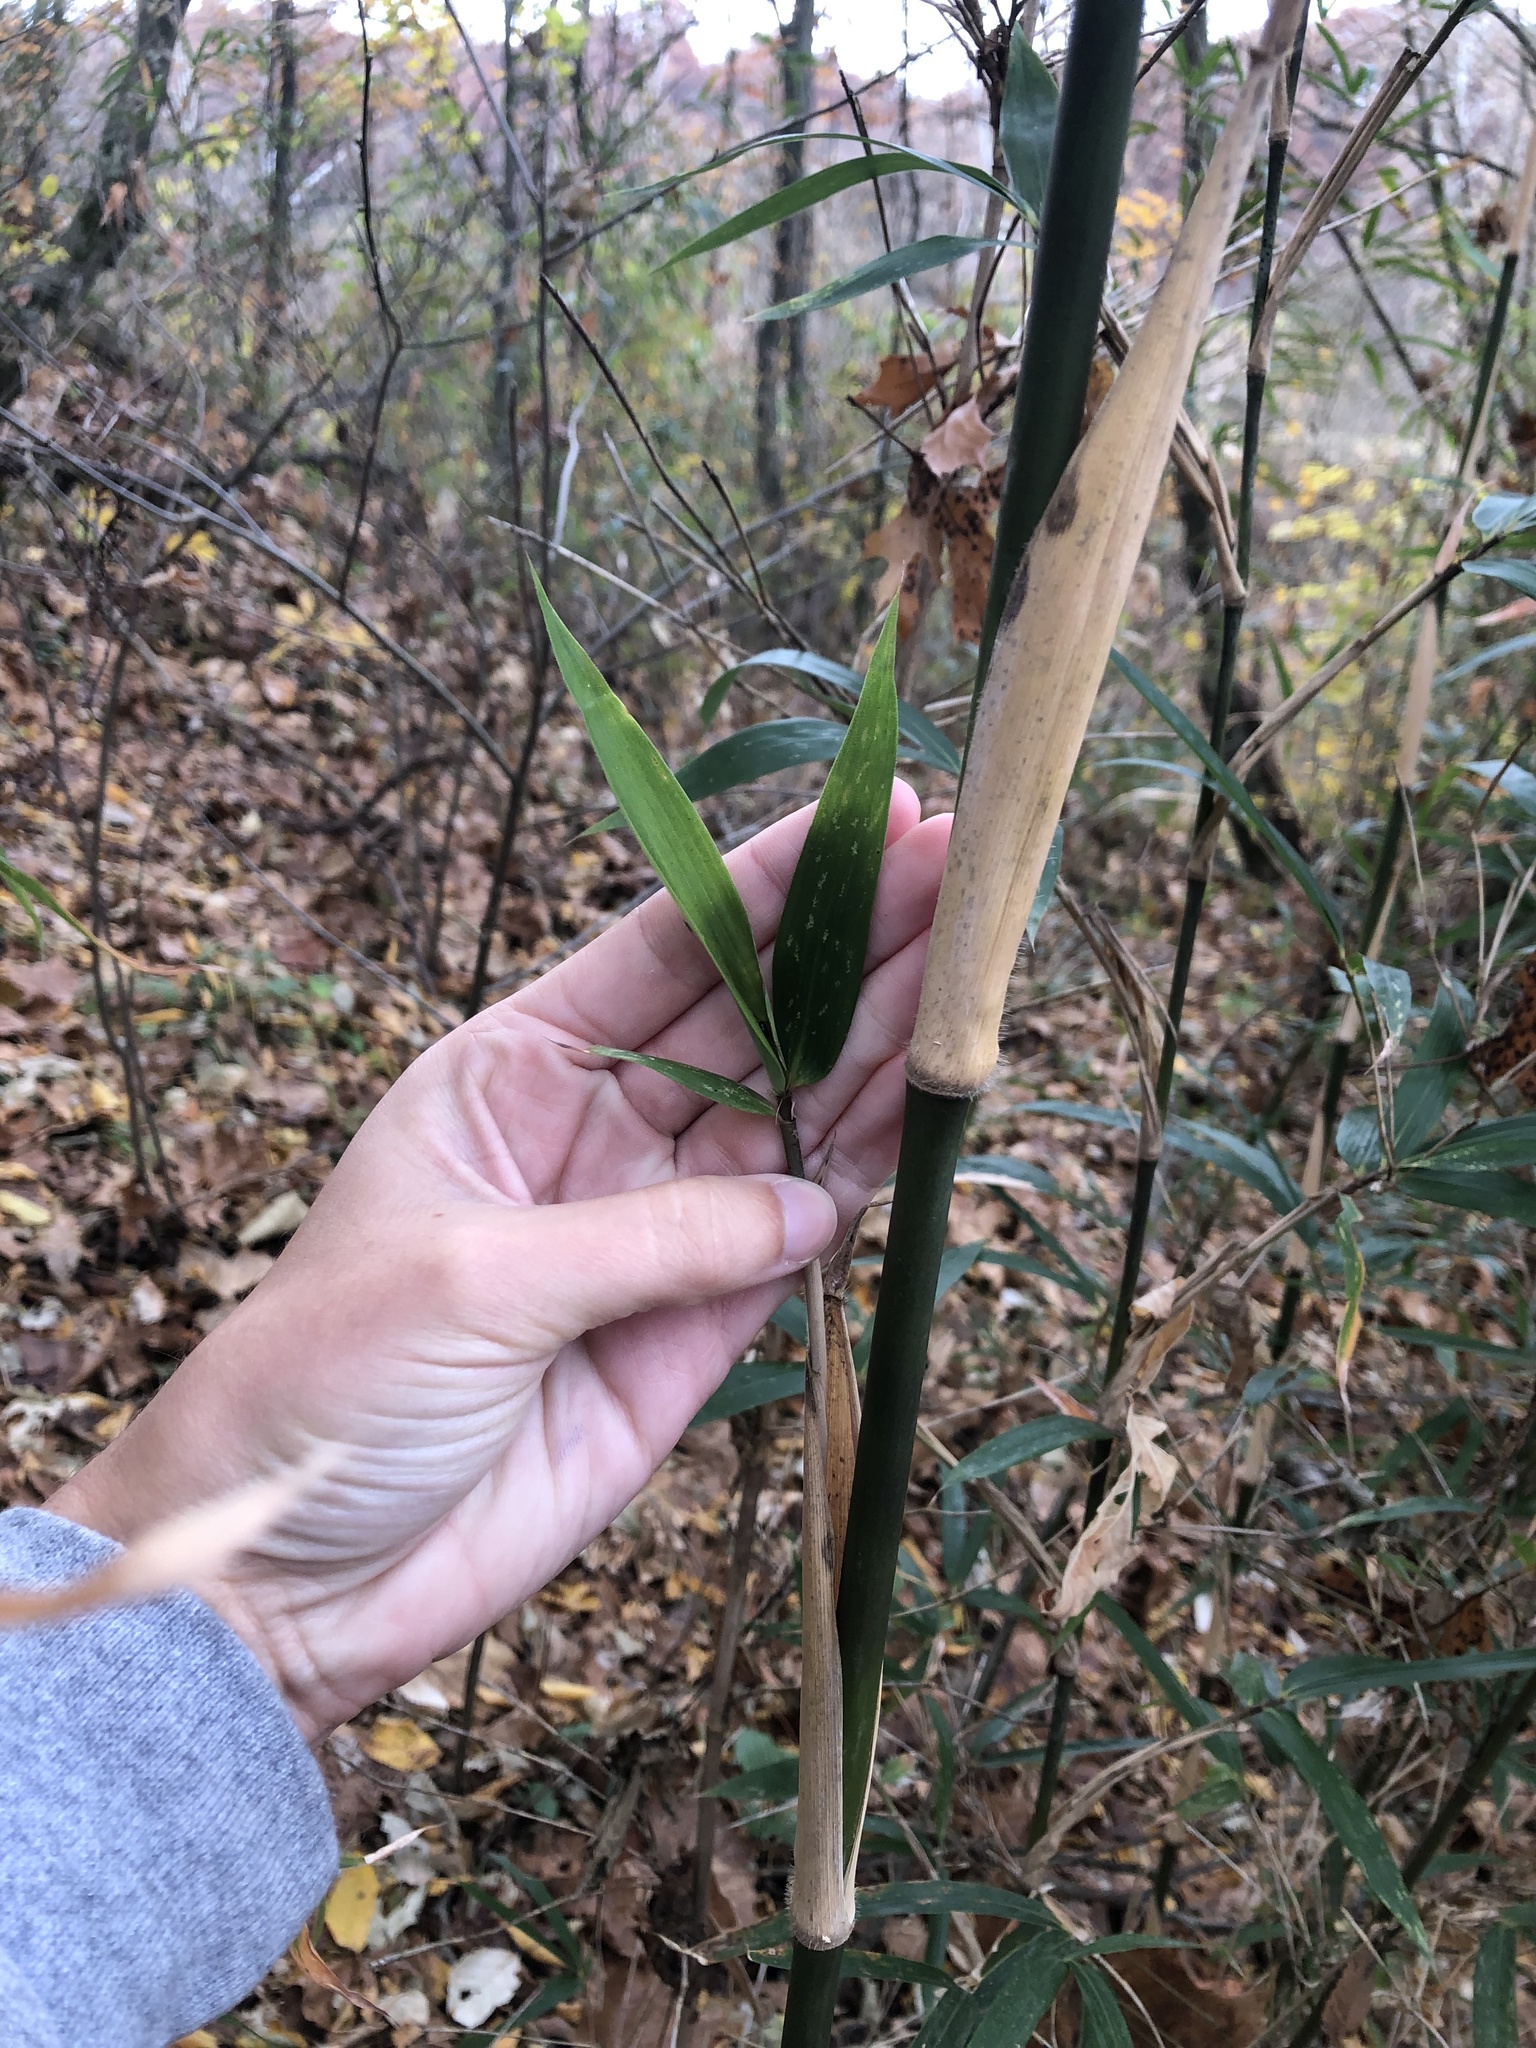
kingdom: Plantae
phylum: Tracheophyta
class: Liliopsida
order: Poales
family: Poaceae
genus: Arundinaria
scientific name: Arundinaria gigantea
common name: Giant cane
